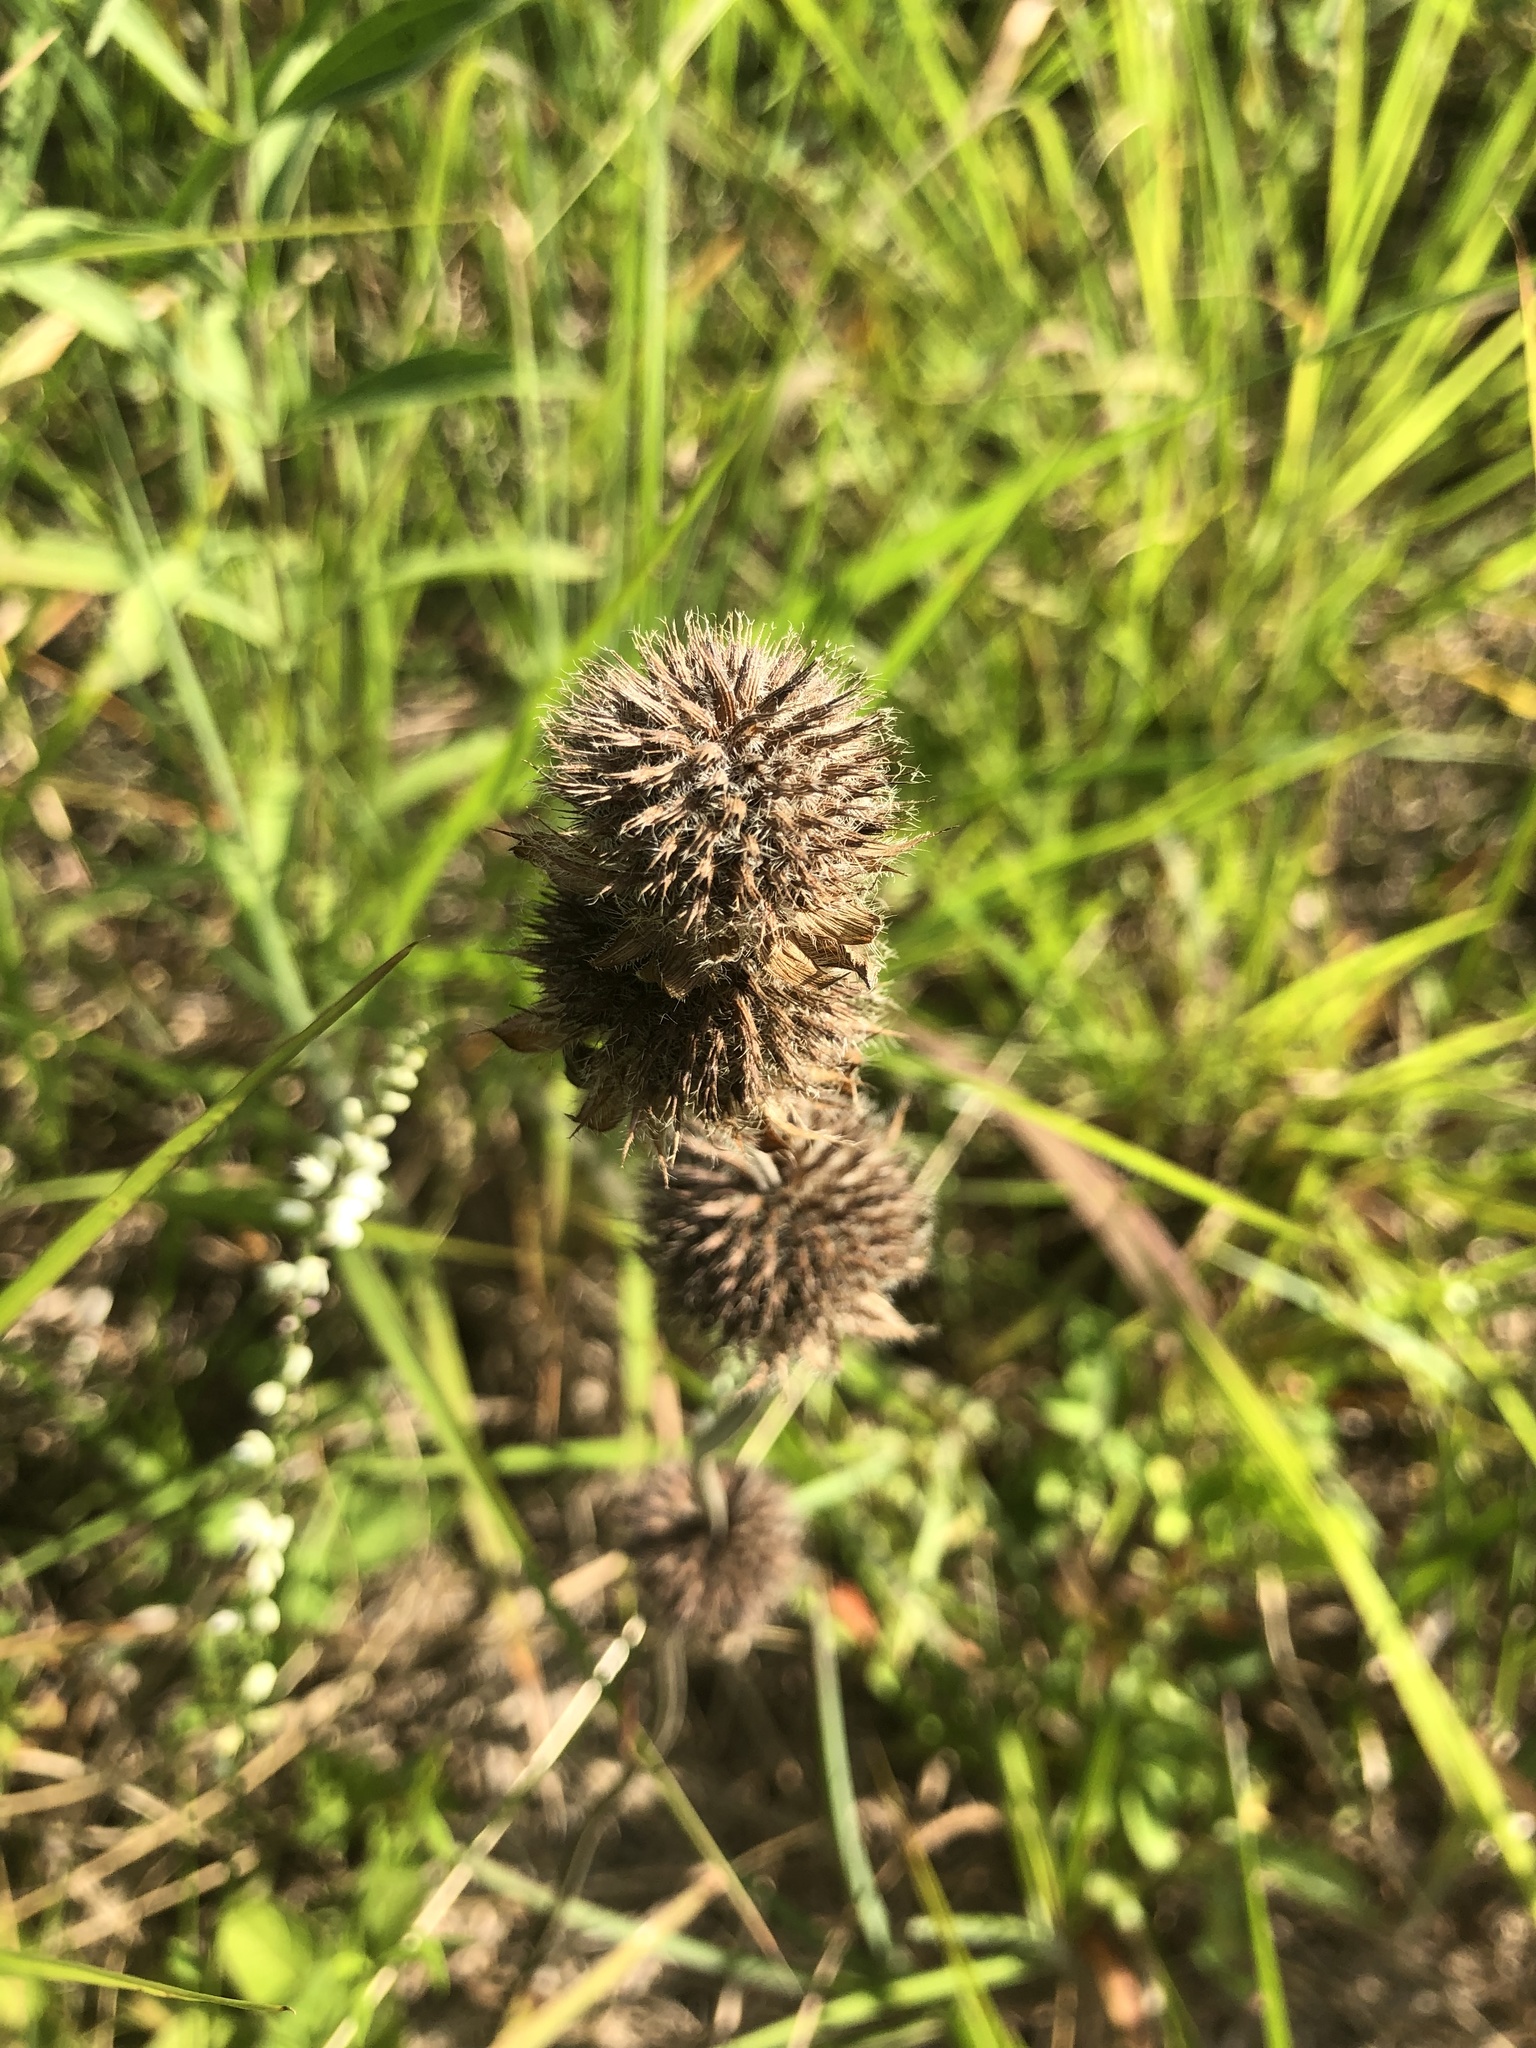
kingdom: Plantae
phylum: Tracheophyta
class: Magnoliopsida
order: Lamiales
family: Lamiaceae
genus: Blephilia
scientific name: Blephilia ciliata
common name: Downy blephilia
